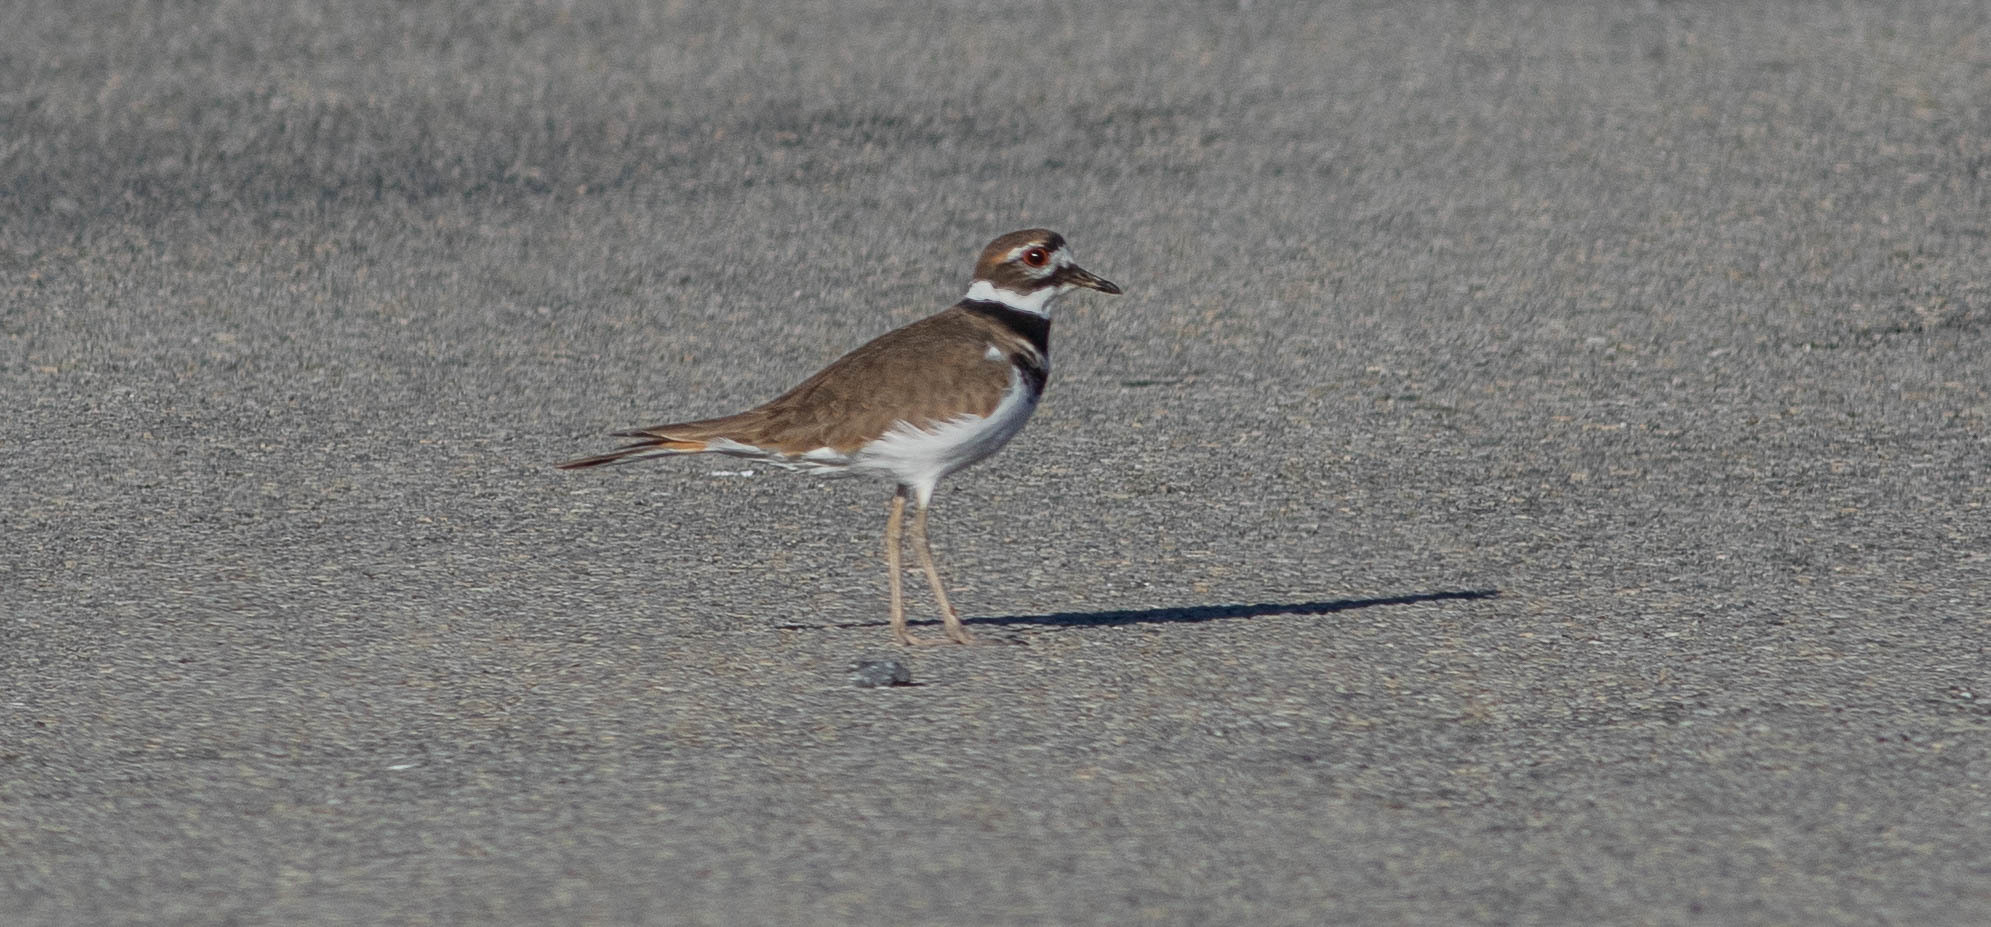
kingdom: Animalia
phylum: Chordata
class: Aves
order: Charadriiformes
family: Charadriidae
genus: Charadrius
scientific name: Charadrius vociferus
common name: Killdeer
